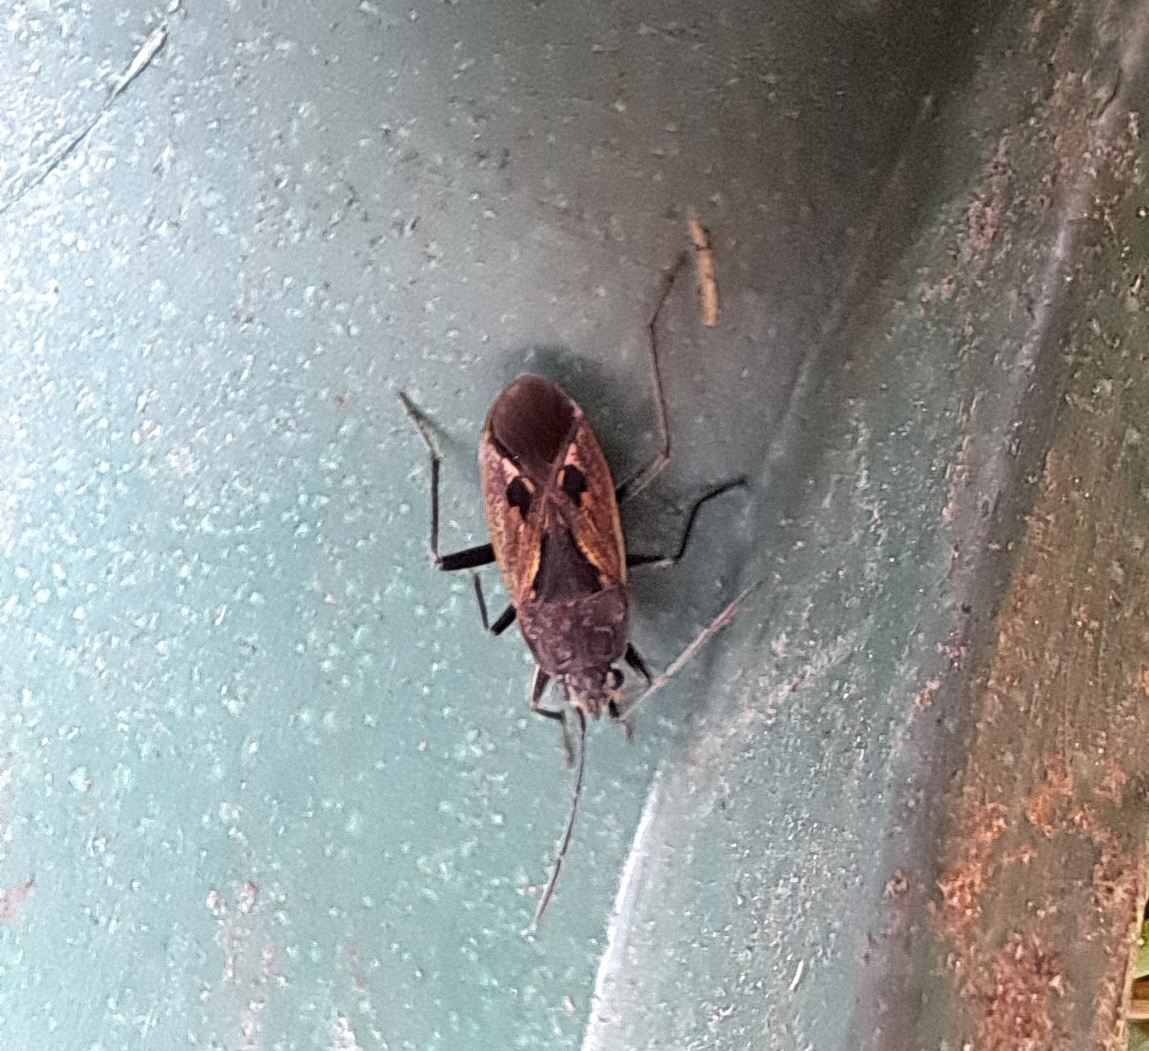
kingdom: Animalia
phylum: Arthropoda
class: Insecta
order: Hemiptera
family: Rhyparochromidae
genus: Rhyparochromus
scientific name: Rhyparochromus pini
